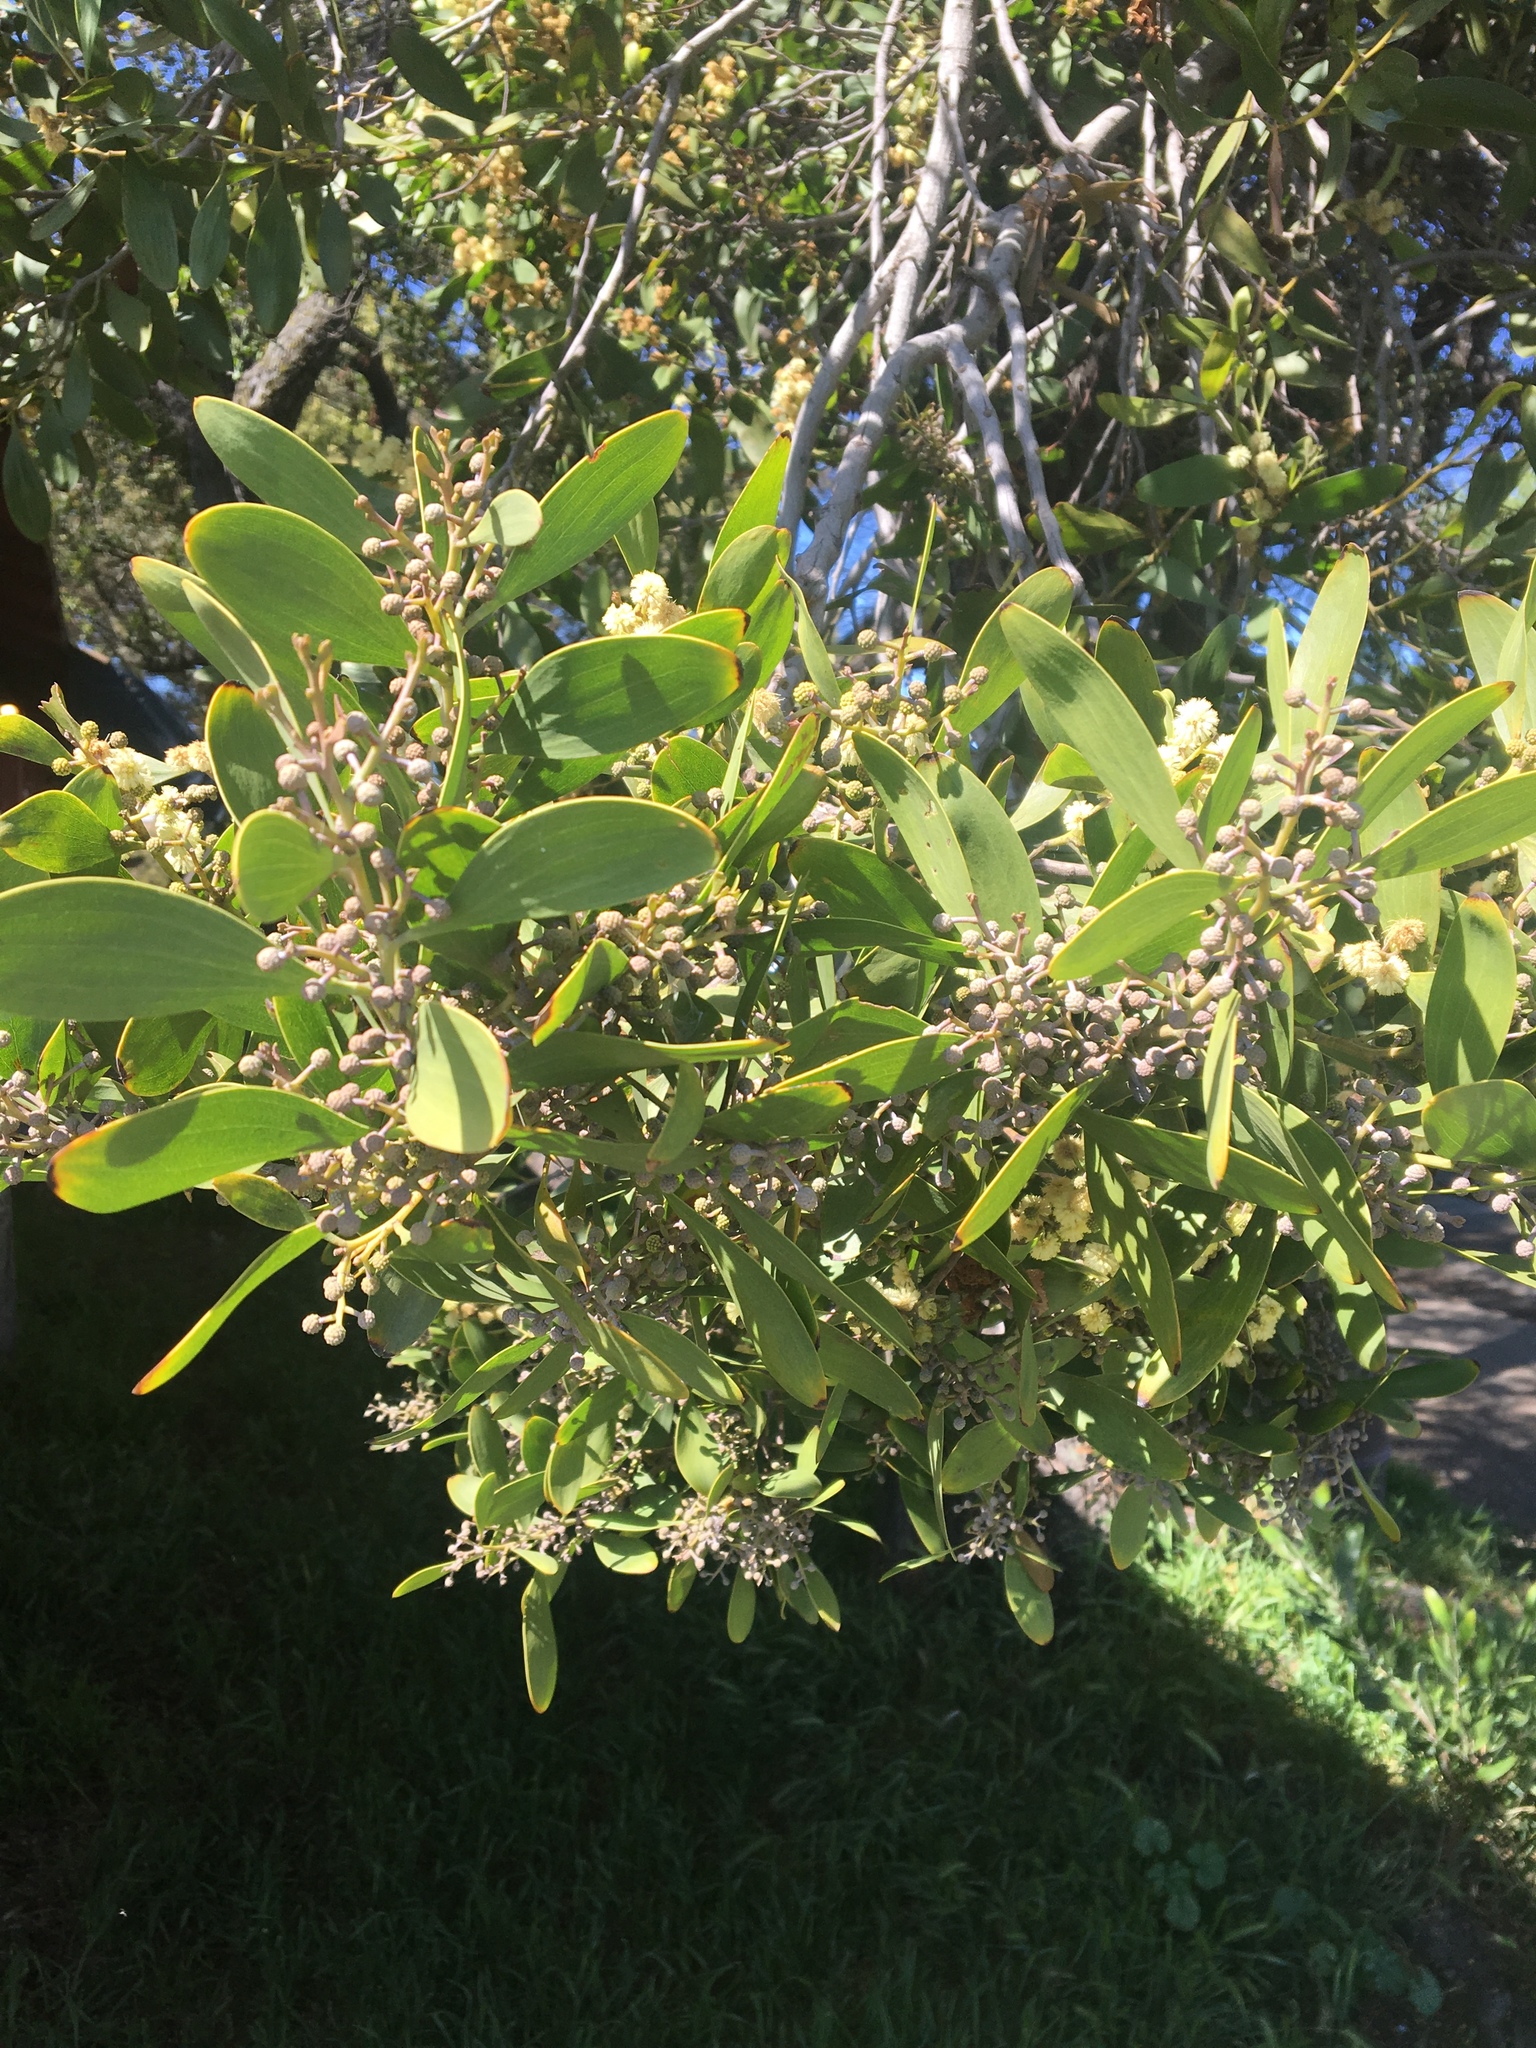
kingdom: Plantae
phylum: Tracheophyta
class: Magnoliopsida
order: Fabales
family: Fabaceae
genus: Acacia
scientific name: Acacia melanoxylon
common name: Blackwood
